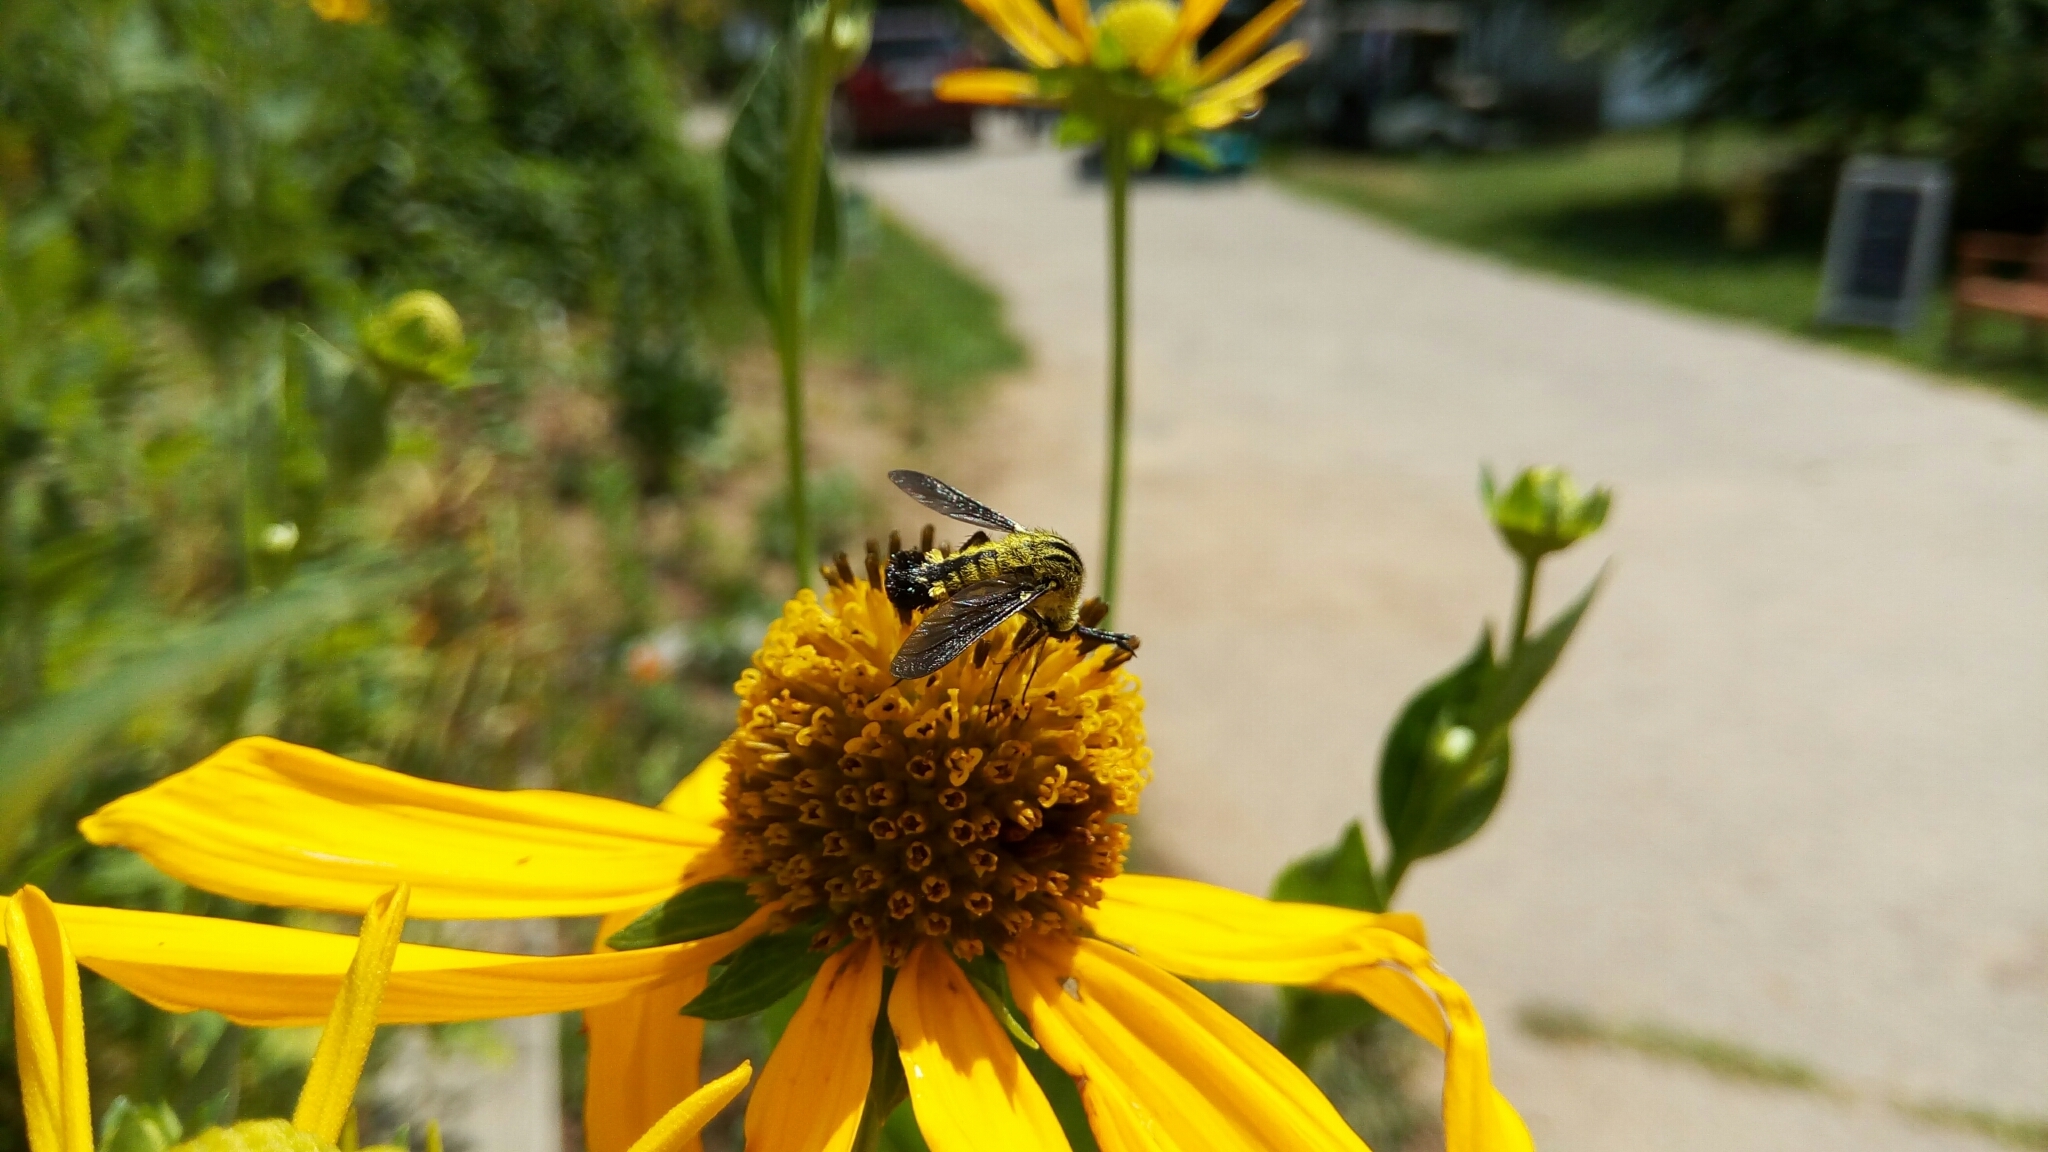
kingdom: Animalia
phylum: Arthropoda
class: Insecta
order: Diptera
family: Bombyliidae
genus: Lepidophora
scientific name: Lepidophora lutea
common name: Hunchback bee fly
